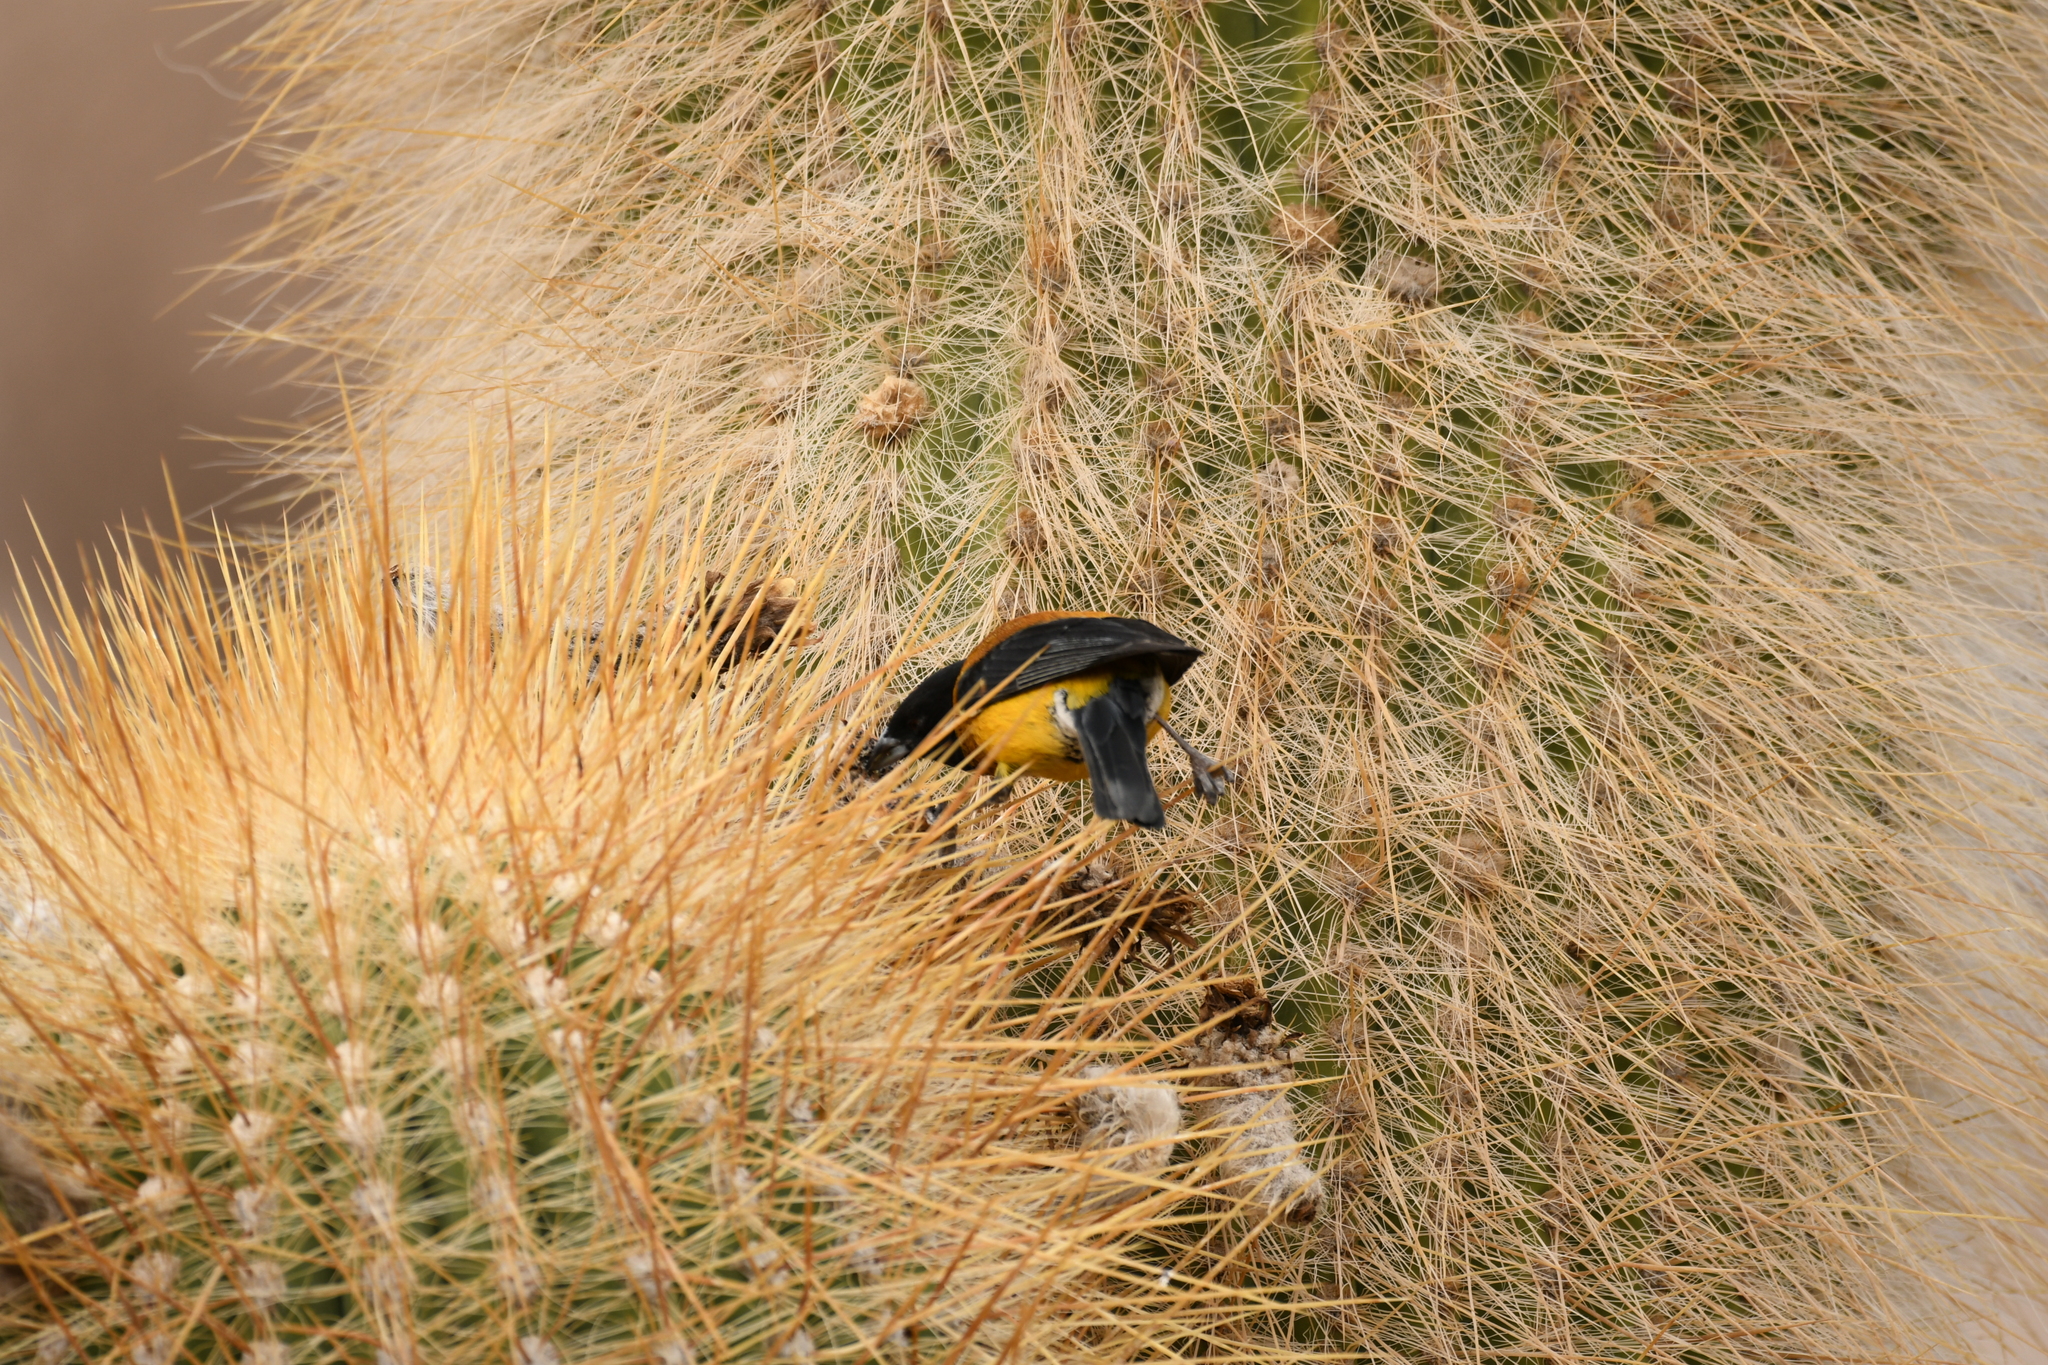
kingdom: Animalia
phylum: Chordata
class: Aves
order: Passeriformes
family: Thraupidae
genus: Phrygilus
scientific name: Phrygilus atriceps
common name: Black-hooded sierra finch
